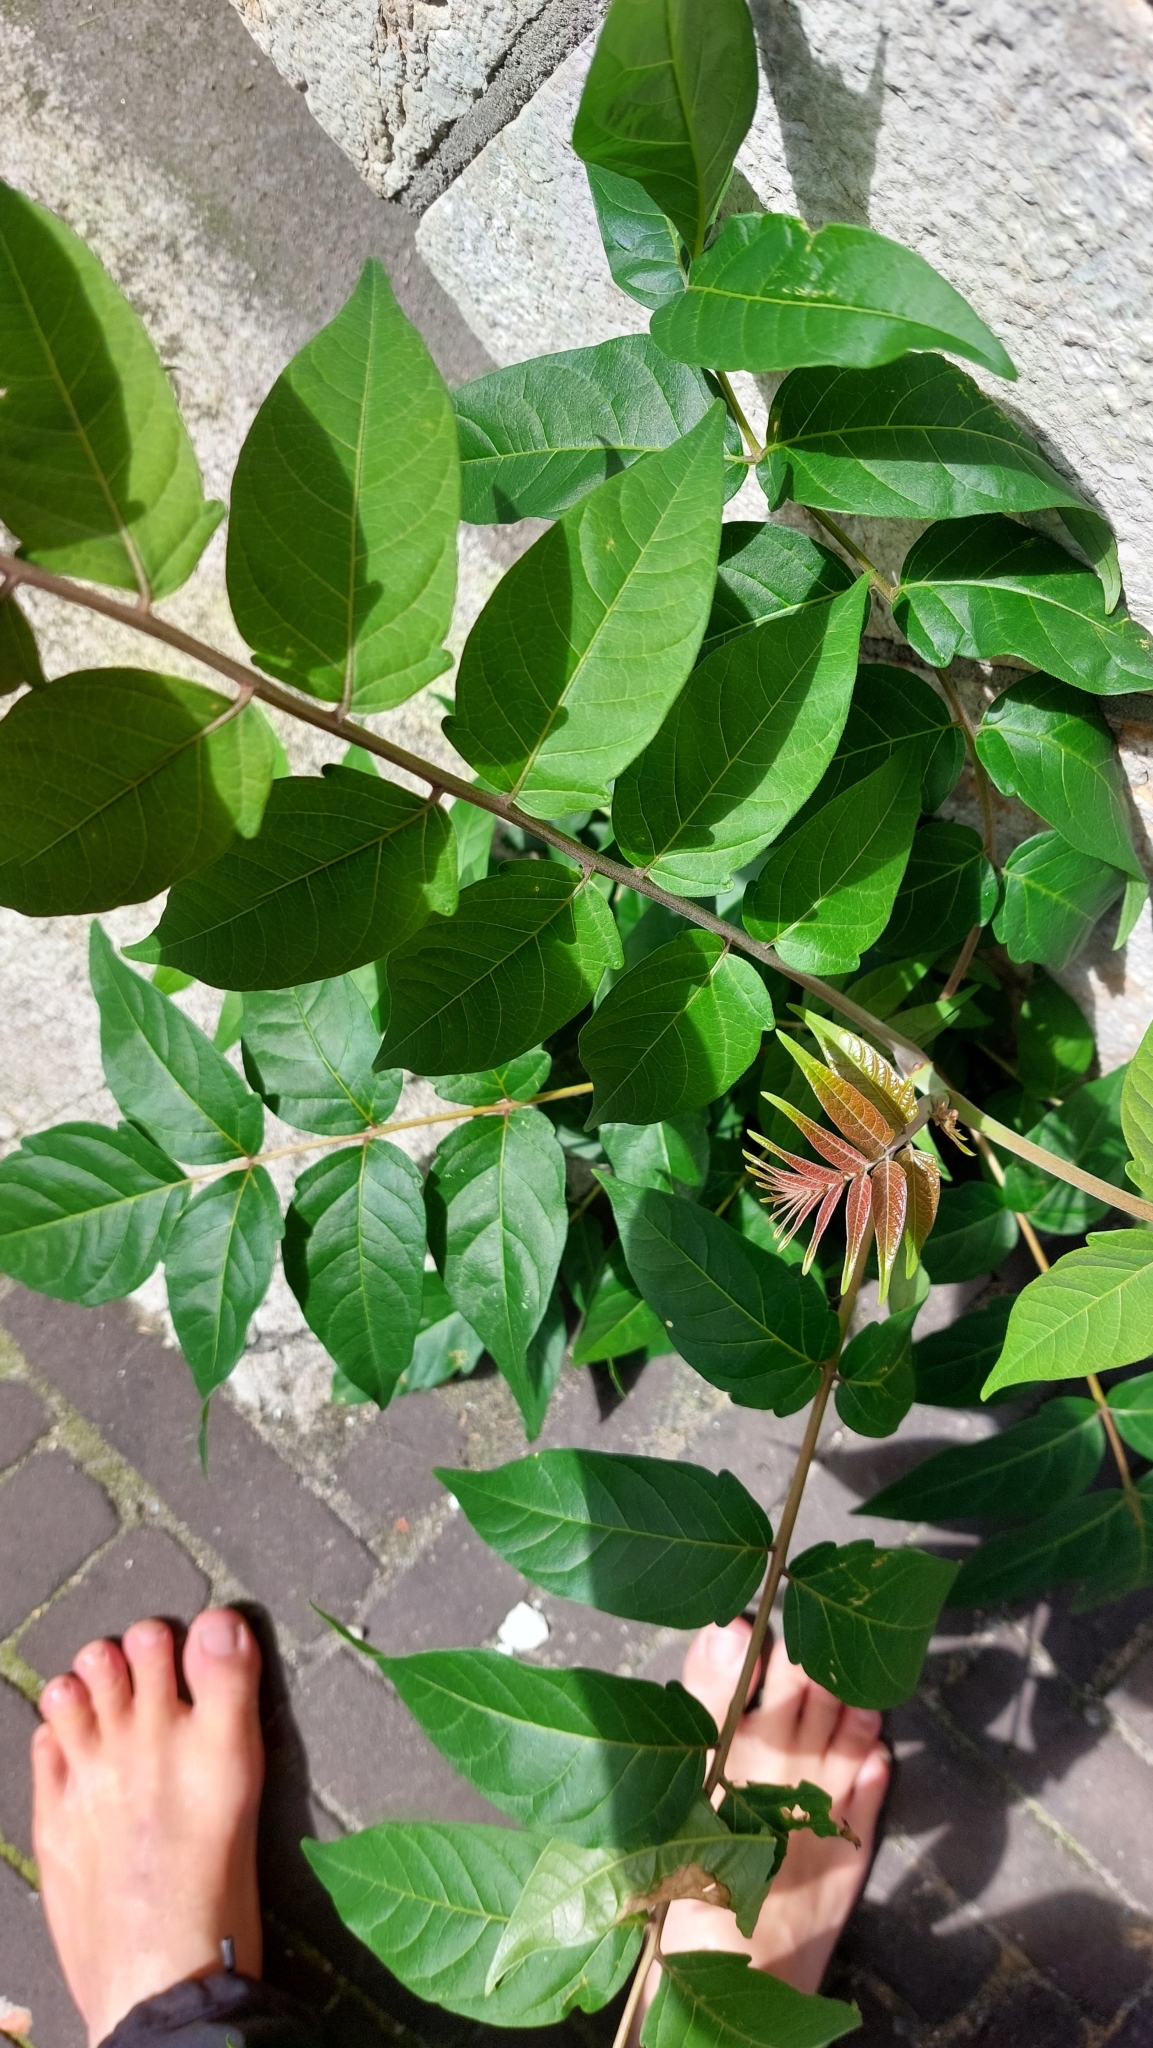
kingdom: Plantae
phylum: Tracheophyta
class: Magnoliopsida
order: Sapindales
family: Simaroubaceae
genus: Ailanthus
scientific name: Ailanthus altissima
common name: Tree-of-heaven
